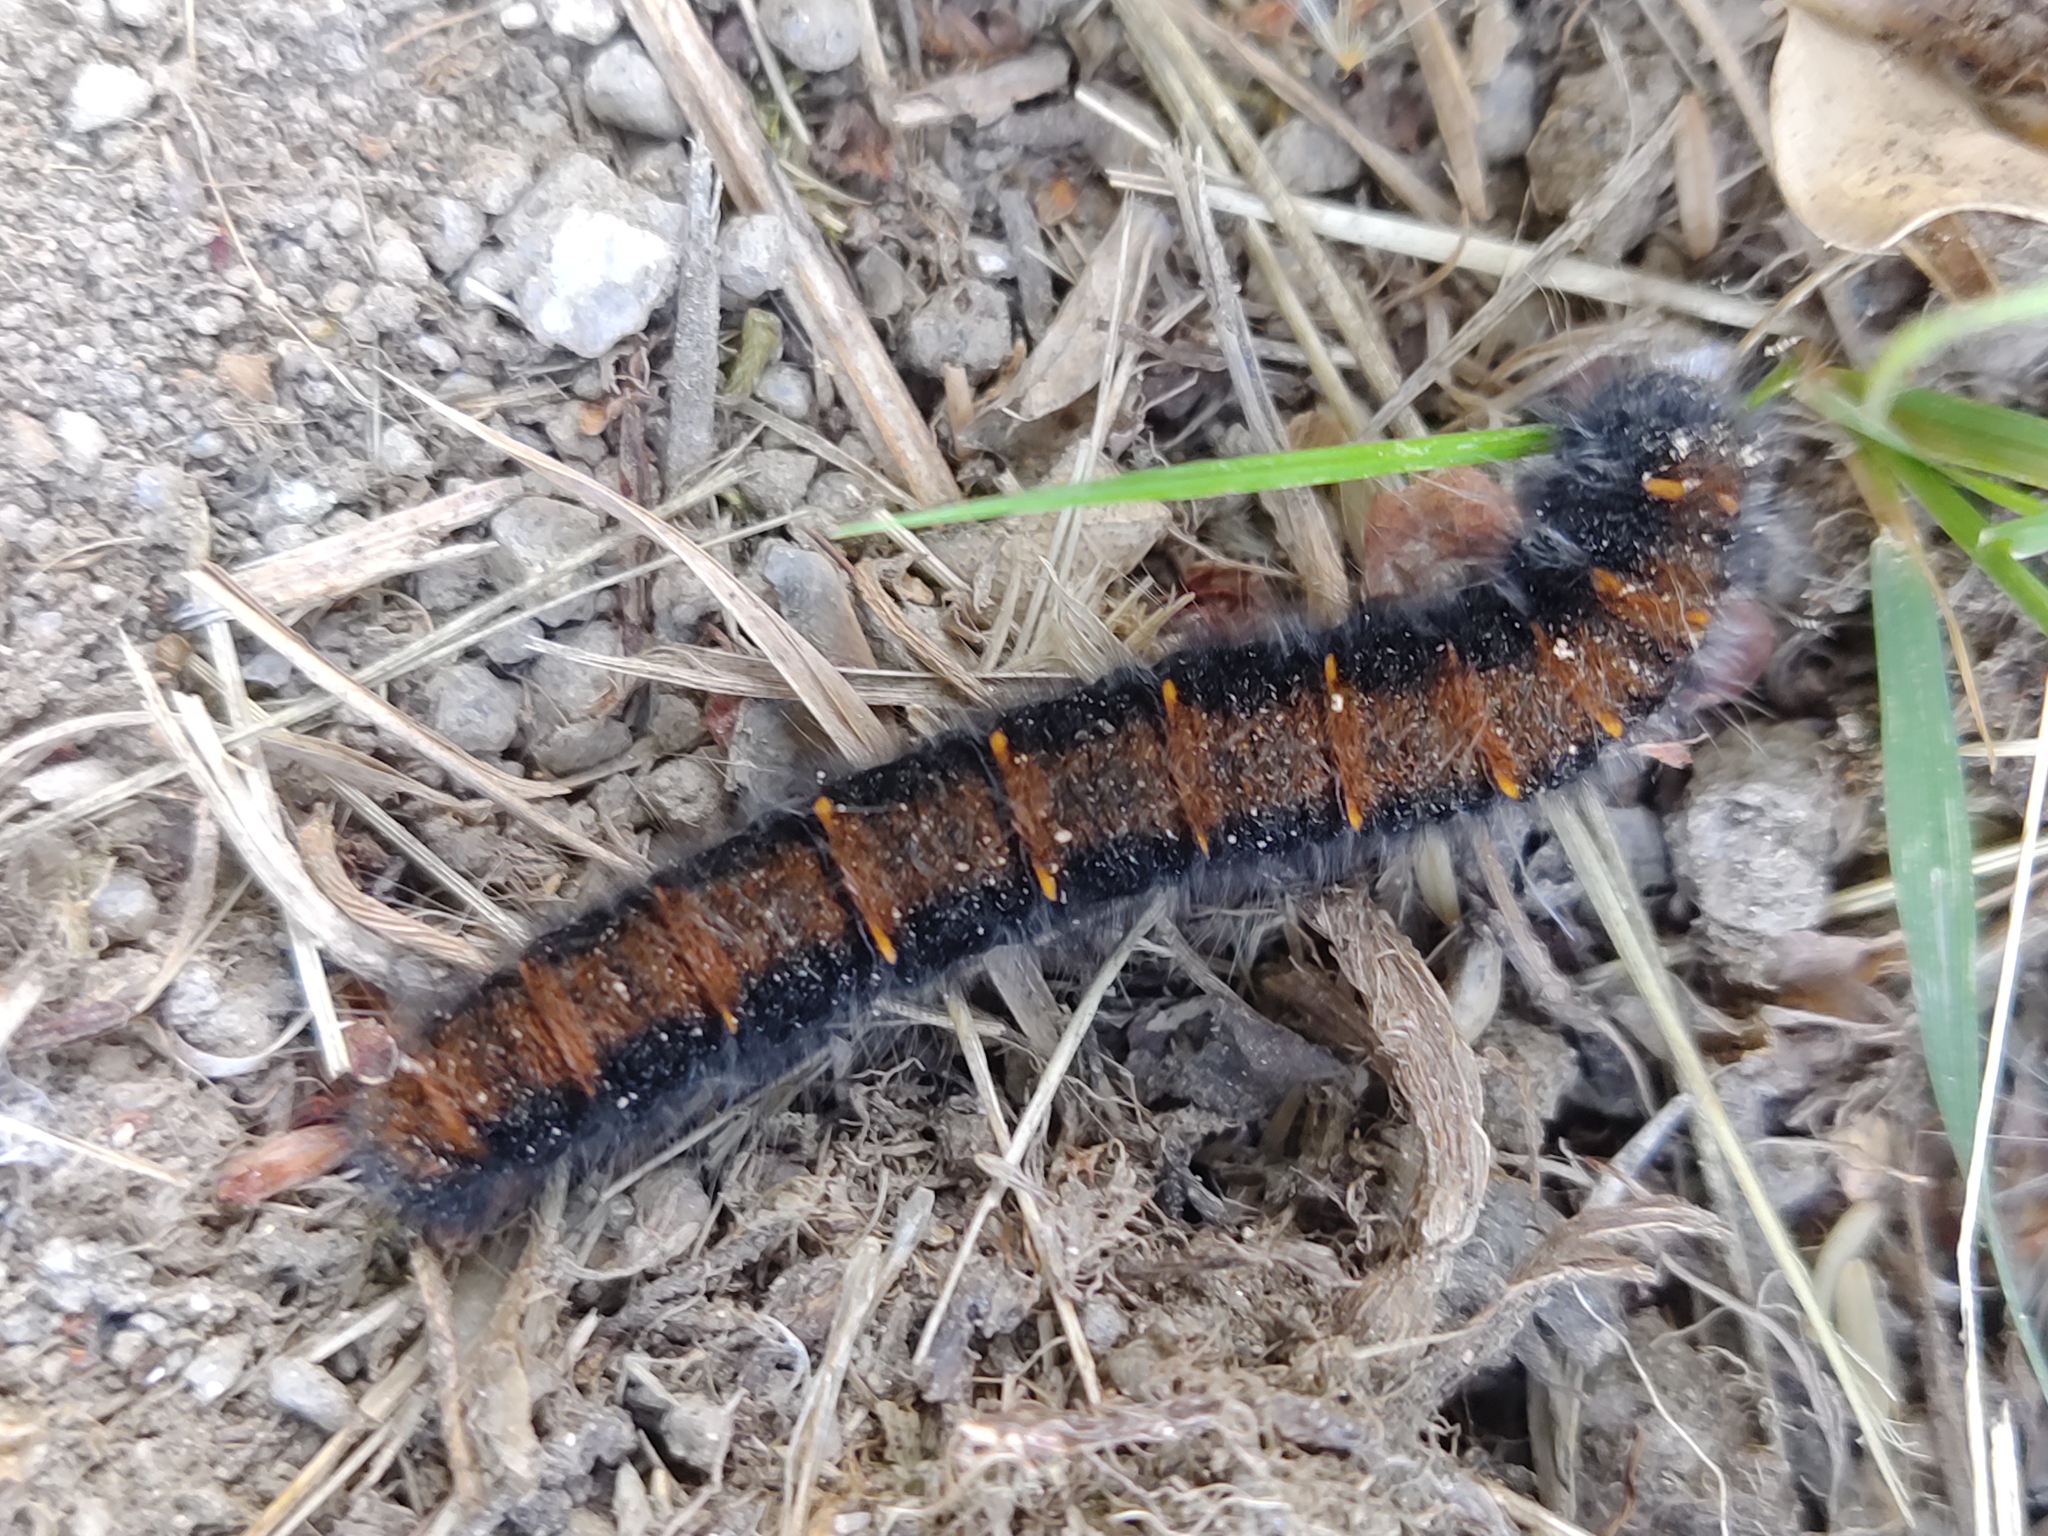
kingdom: Animalia
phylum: Arthropoda
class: Insecta
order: Lepidoptera
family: Lasiocampidae
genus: Macrothylacia
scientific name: Macrothylacia rubi
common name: Fox moth
